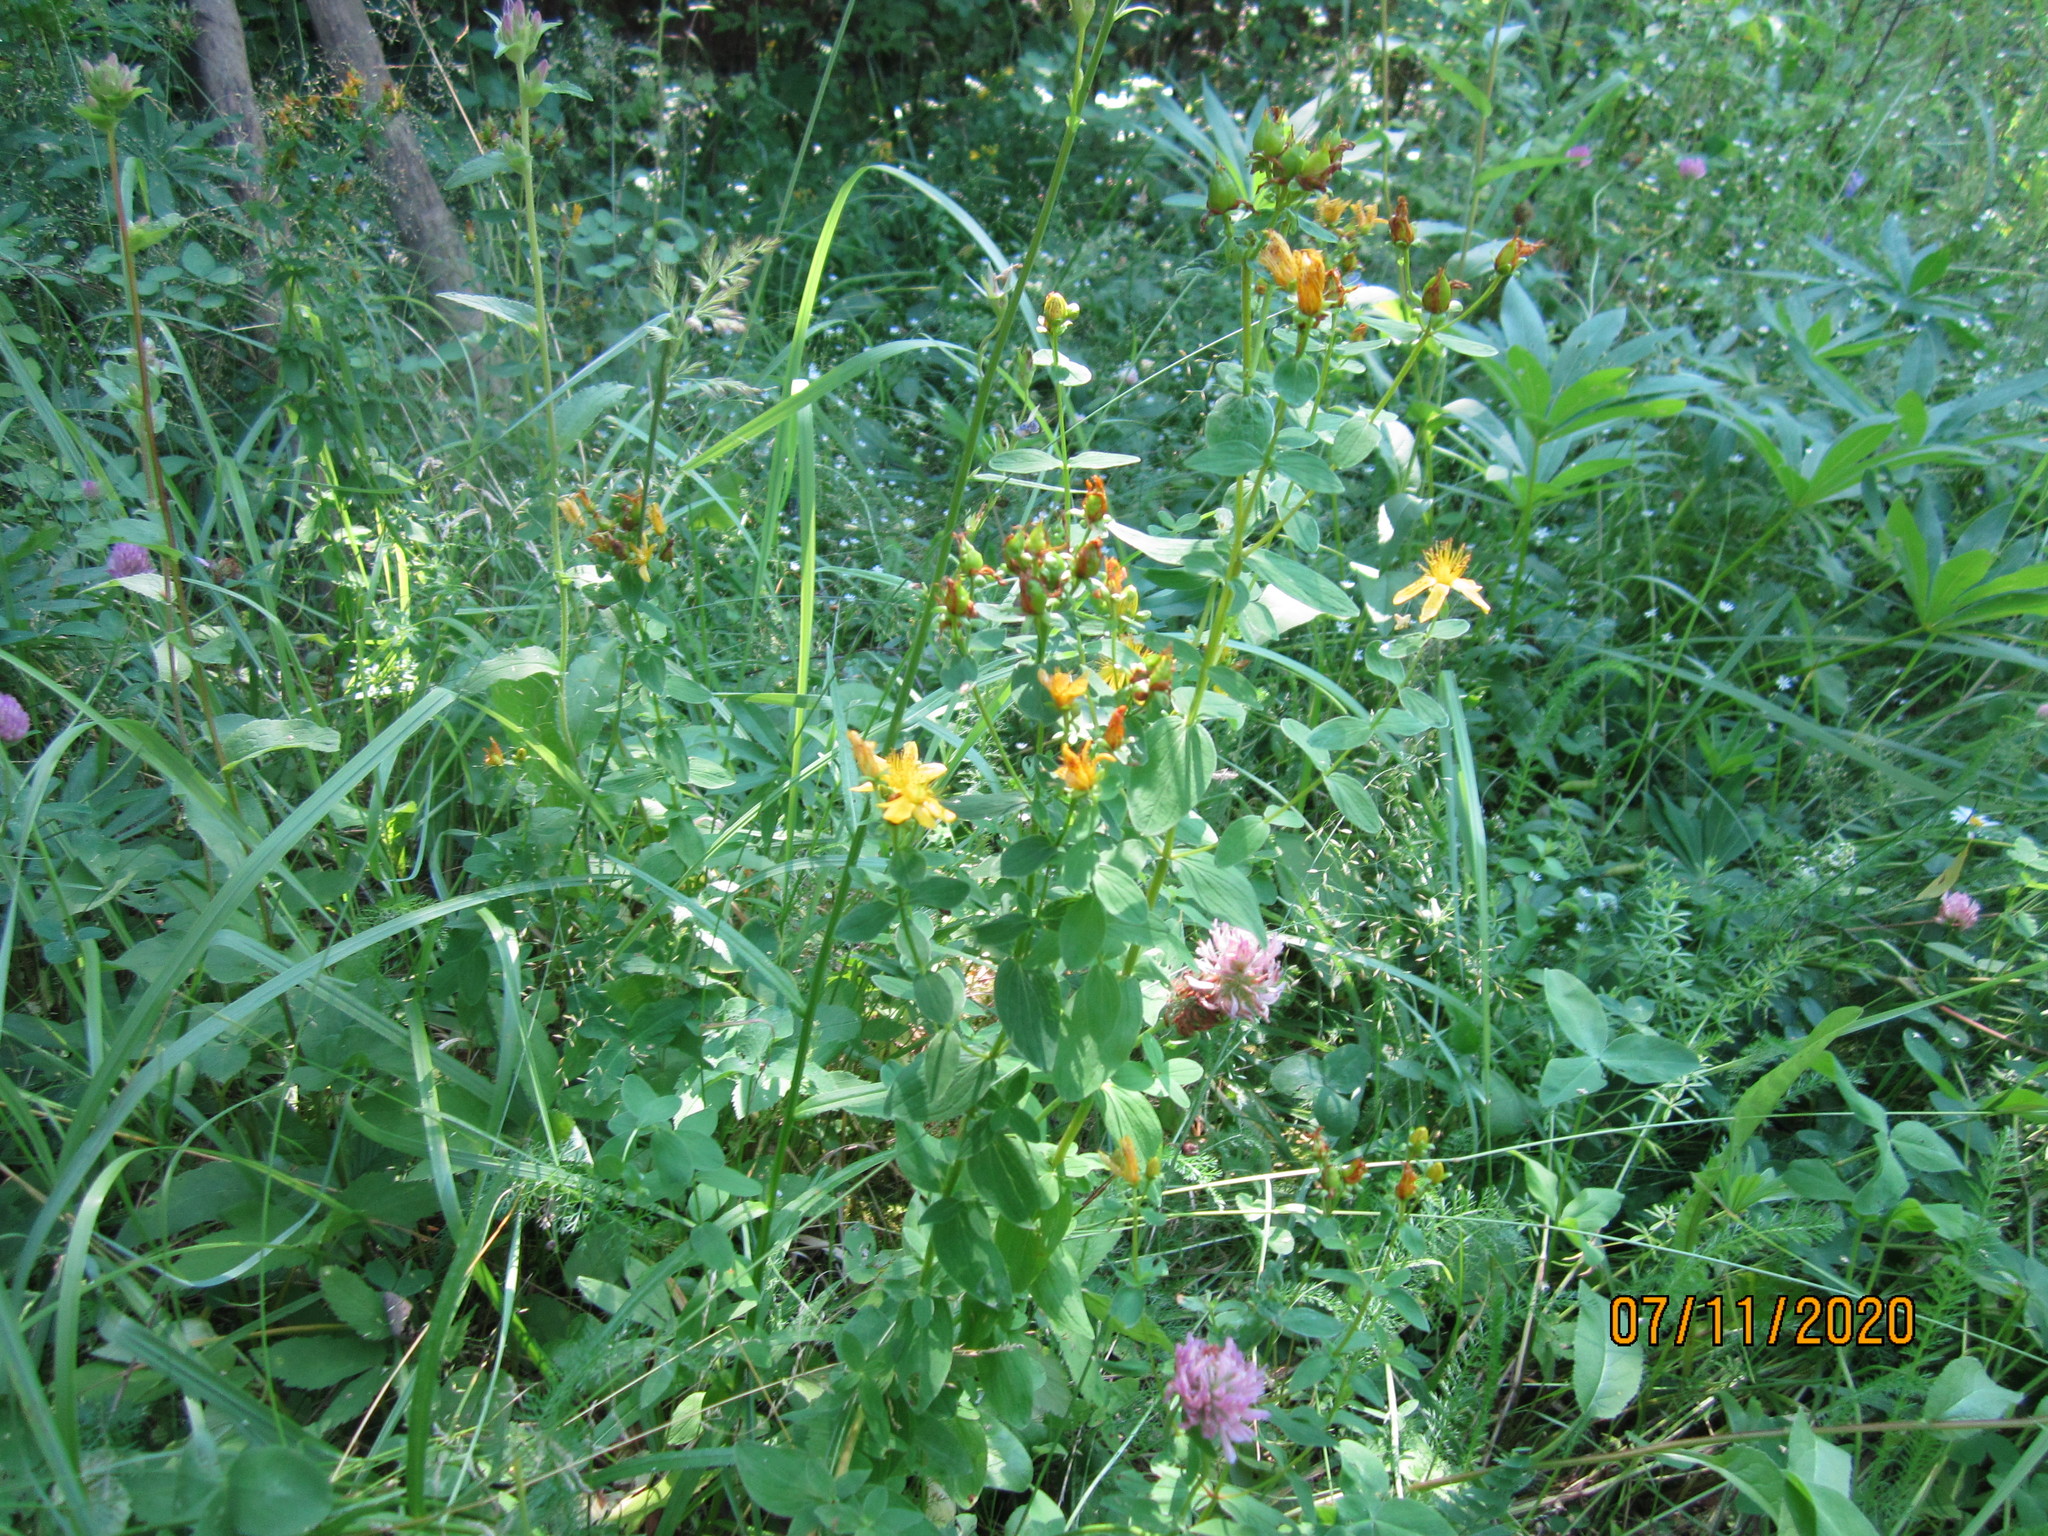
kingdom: Plantae
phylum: Tracheophyta
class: Magnoliopsida
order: Malpighiales
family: Hypericaceae
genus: Hypericum
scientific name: Hypericum maculatum
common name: Imperforate st. john's-wort
